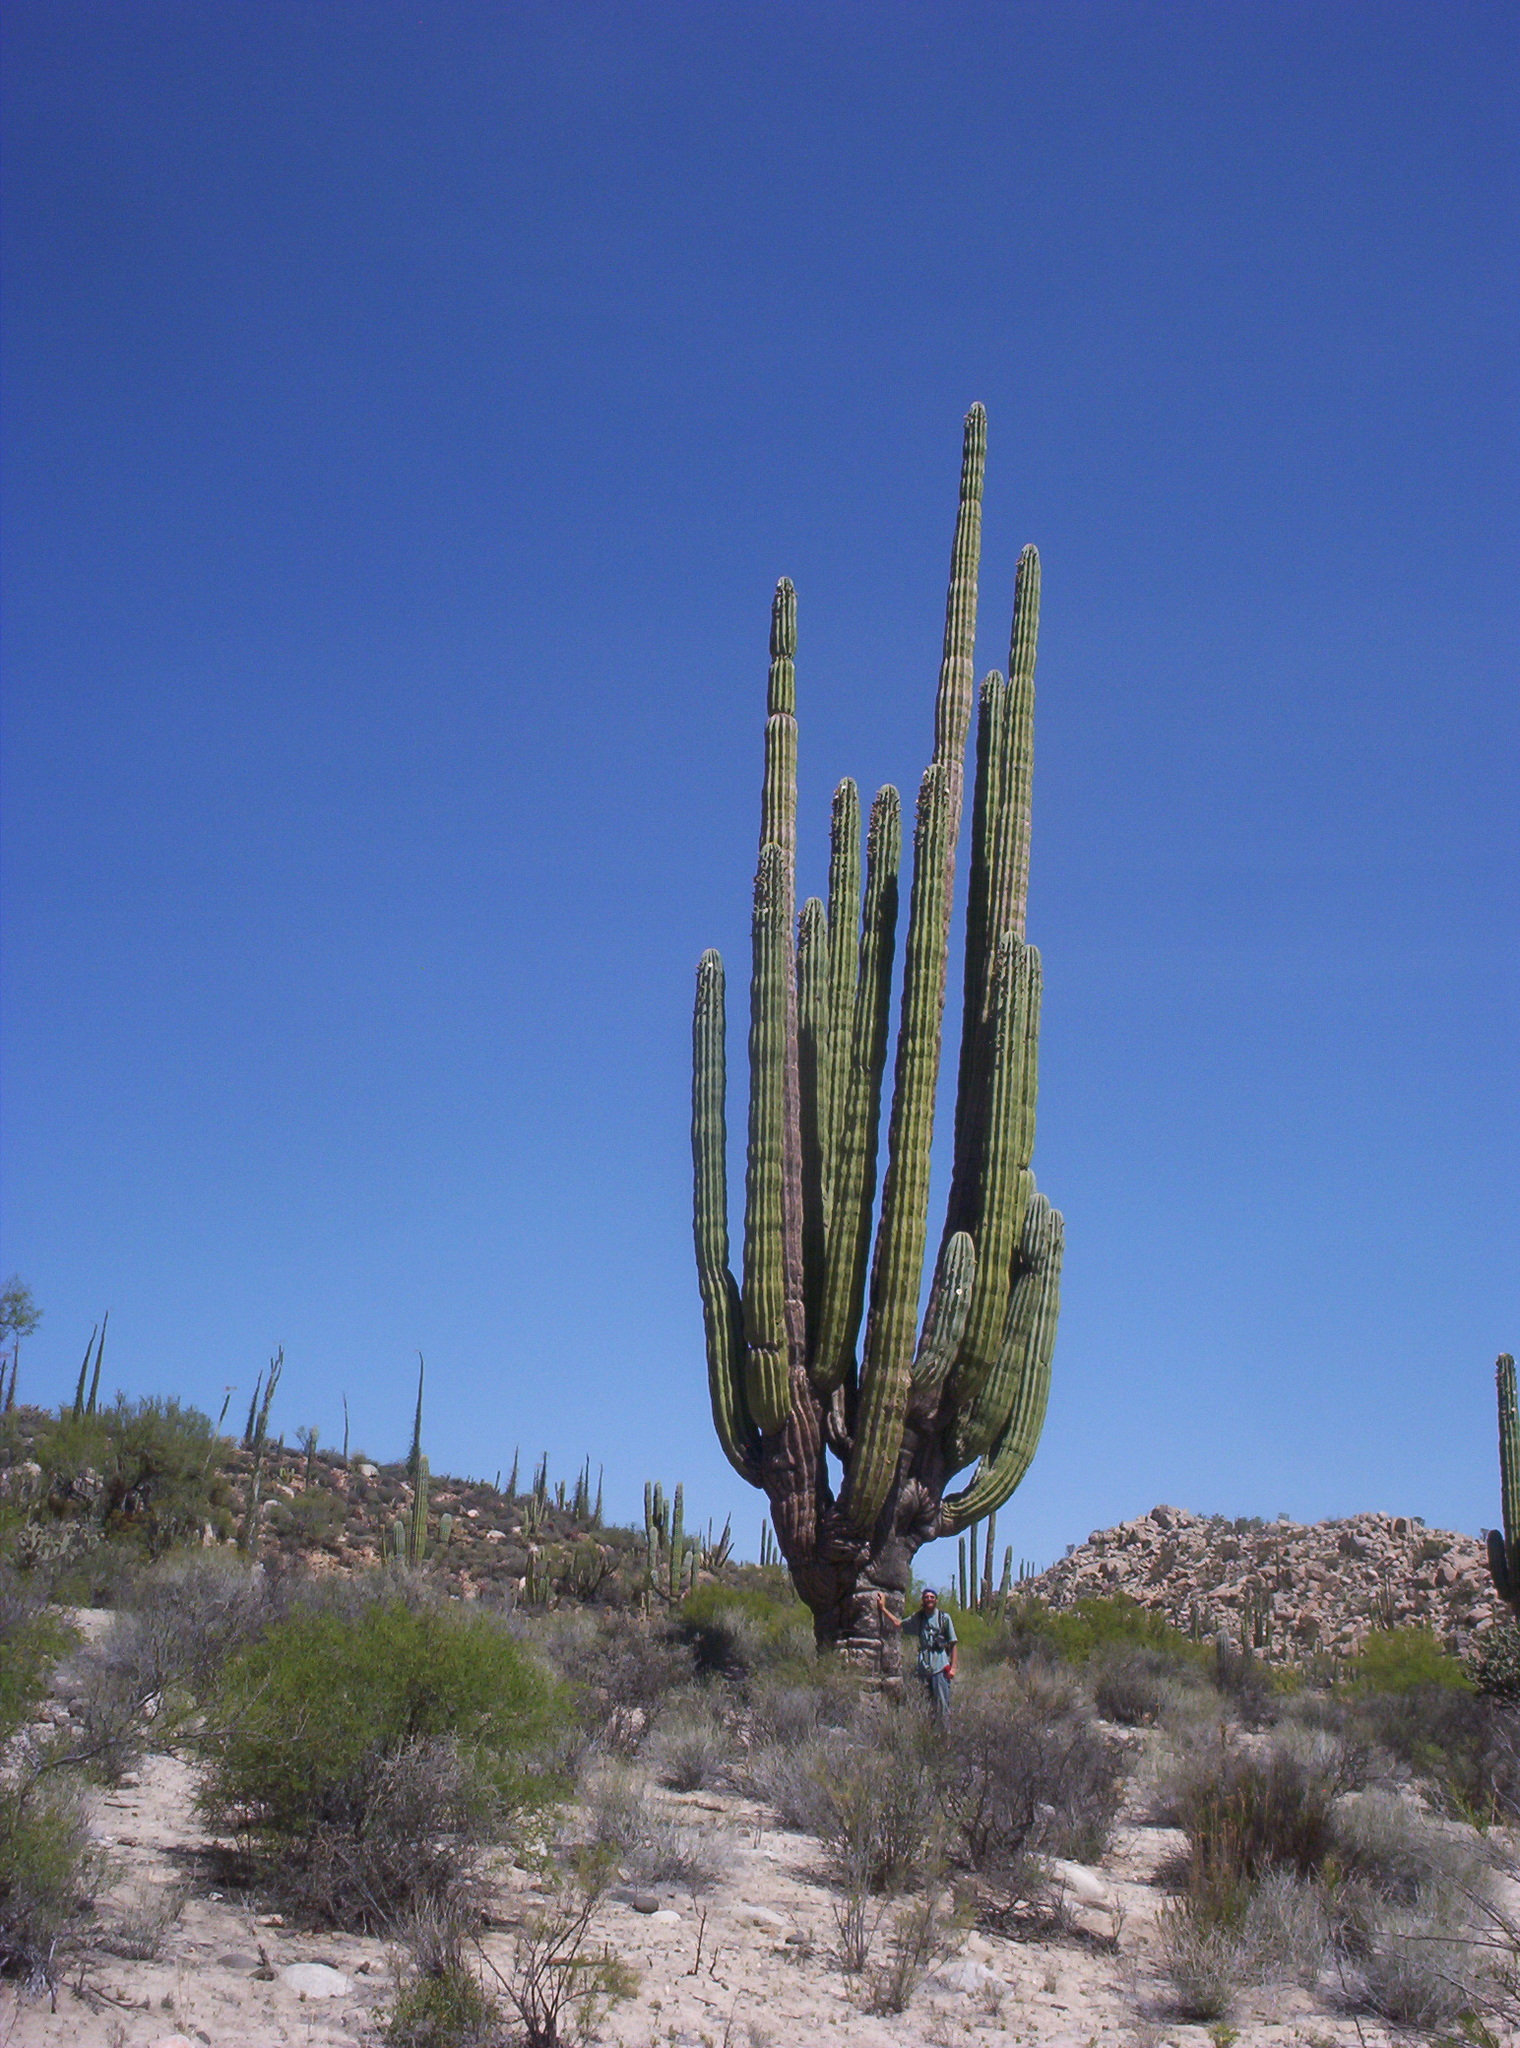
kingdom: Plantae
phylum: Tracheophyta
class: Magnoliopsida
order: Caryophyllales
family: Cactaceae
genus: Pachycereus
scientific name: Pachycereus pringlei
